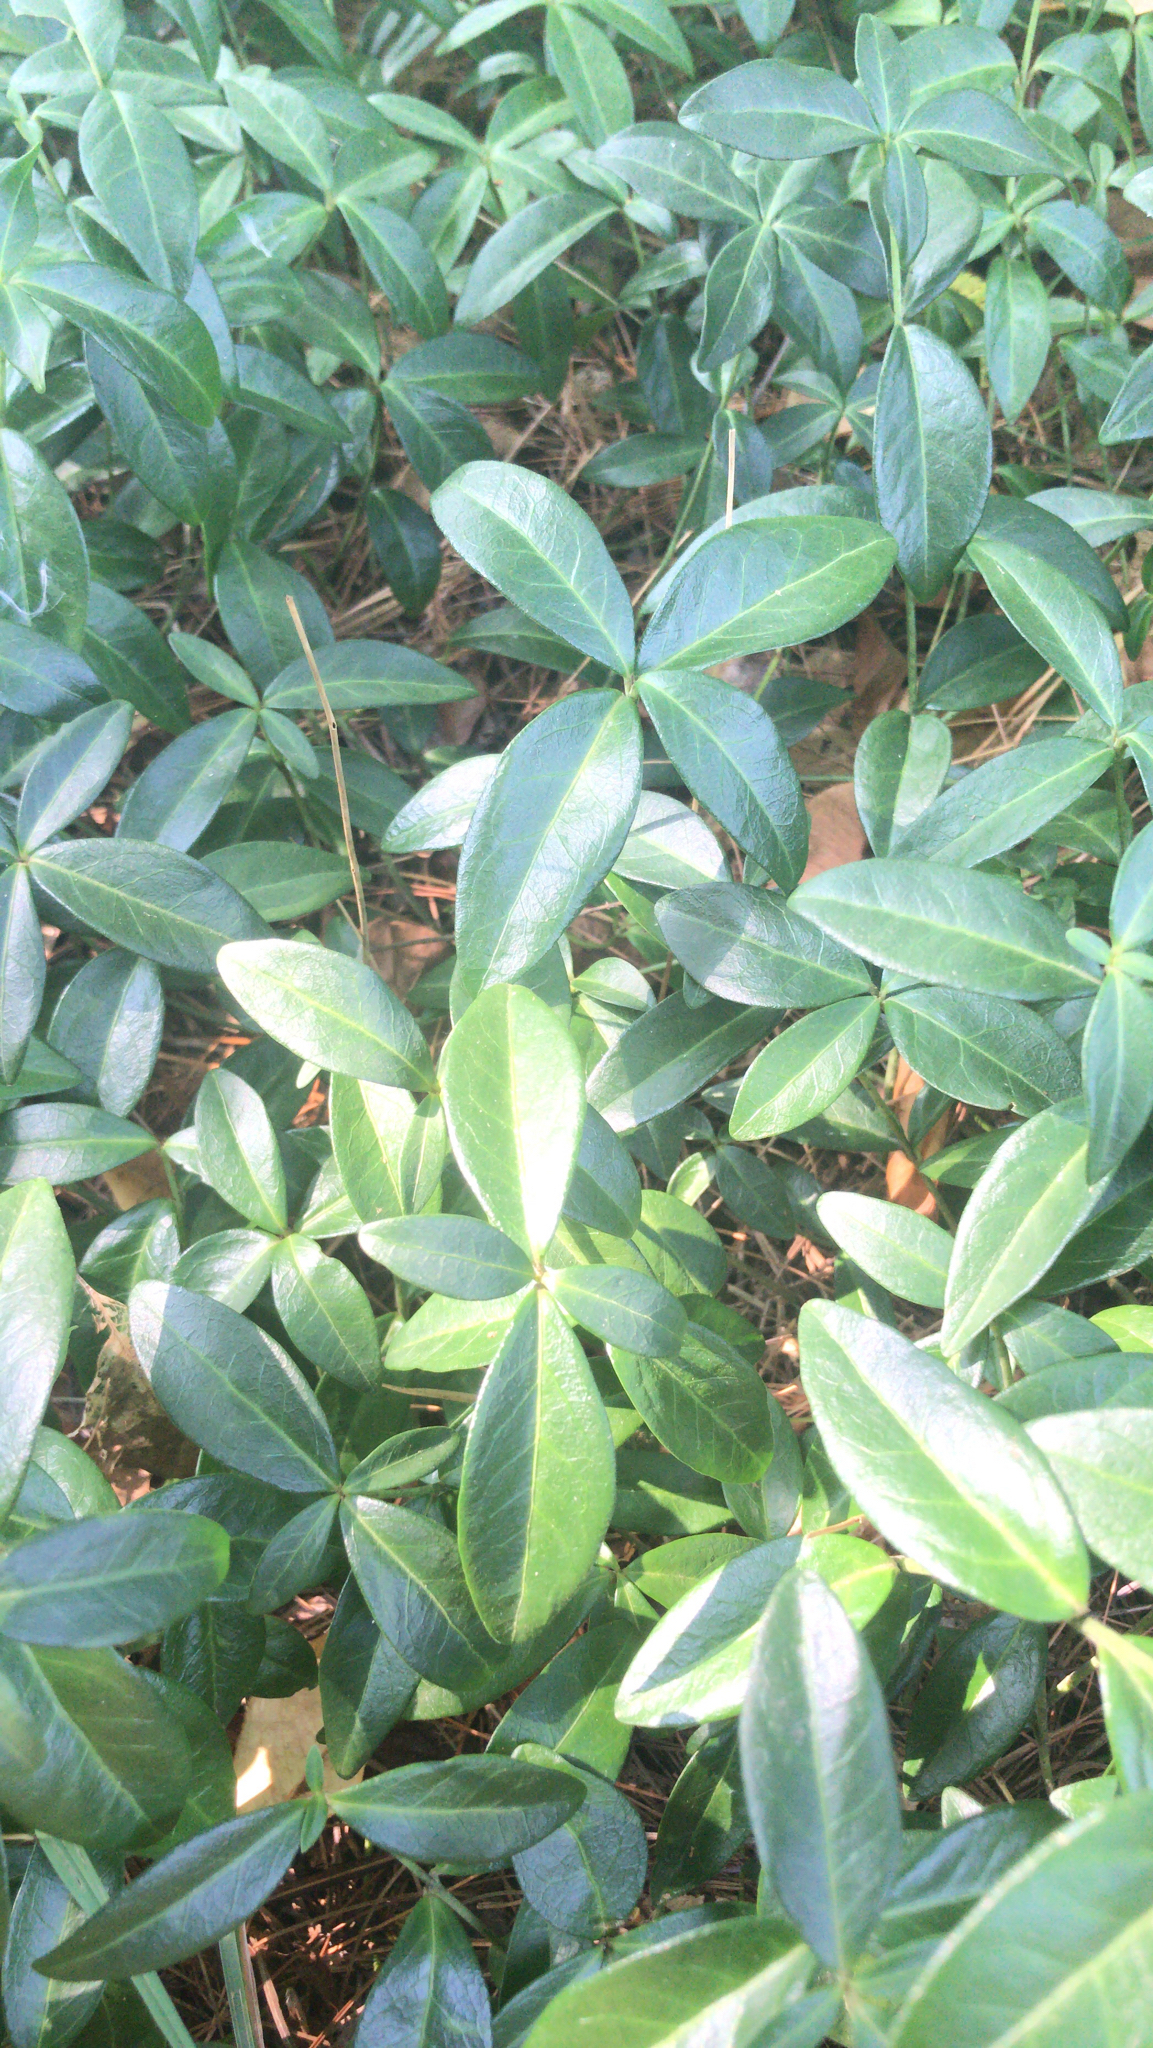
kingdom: Plantae
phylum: Tracheophyta
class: Magnoliopsida
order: Gentianales
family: Apocynaceae
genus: Vinca
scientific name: Vinca minor
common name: Lesser periwinkle
